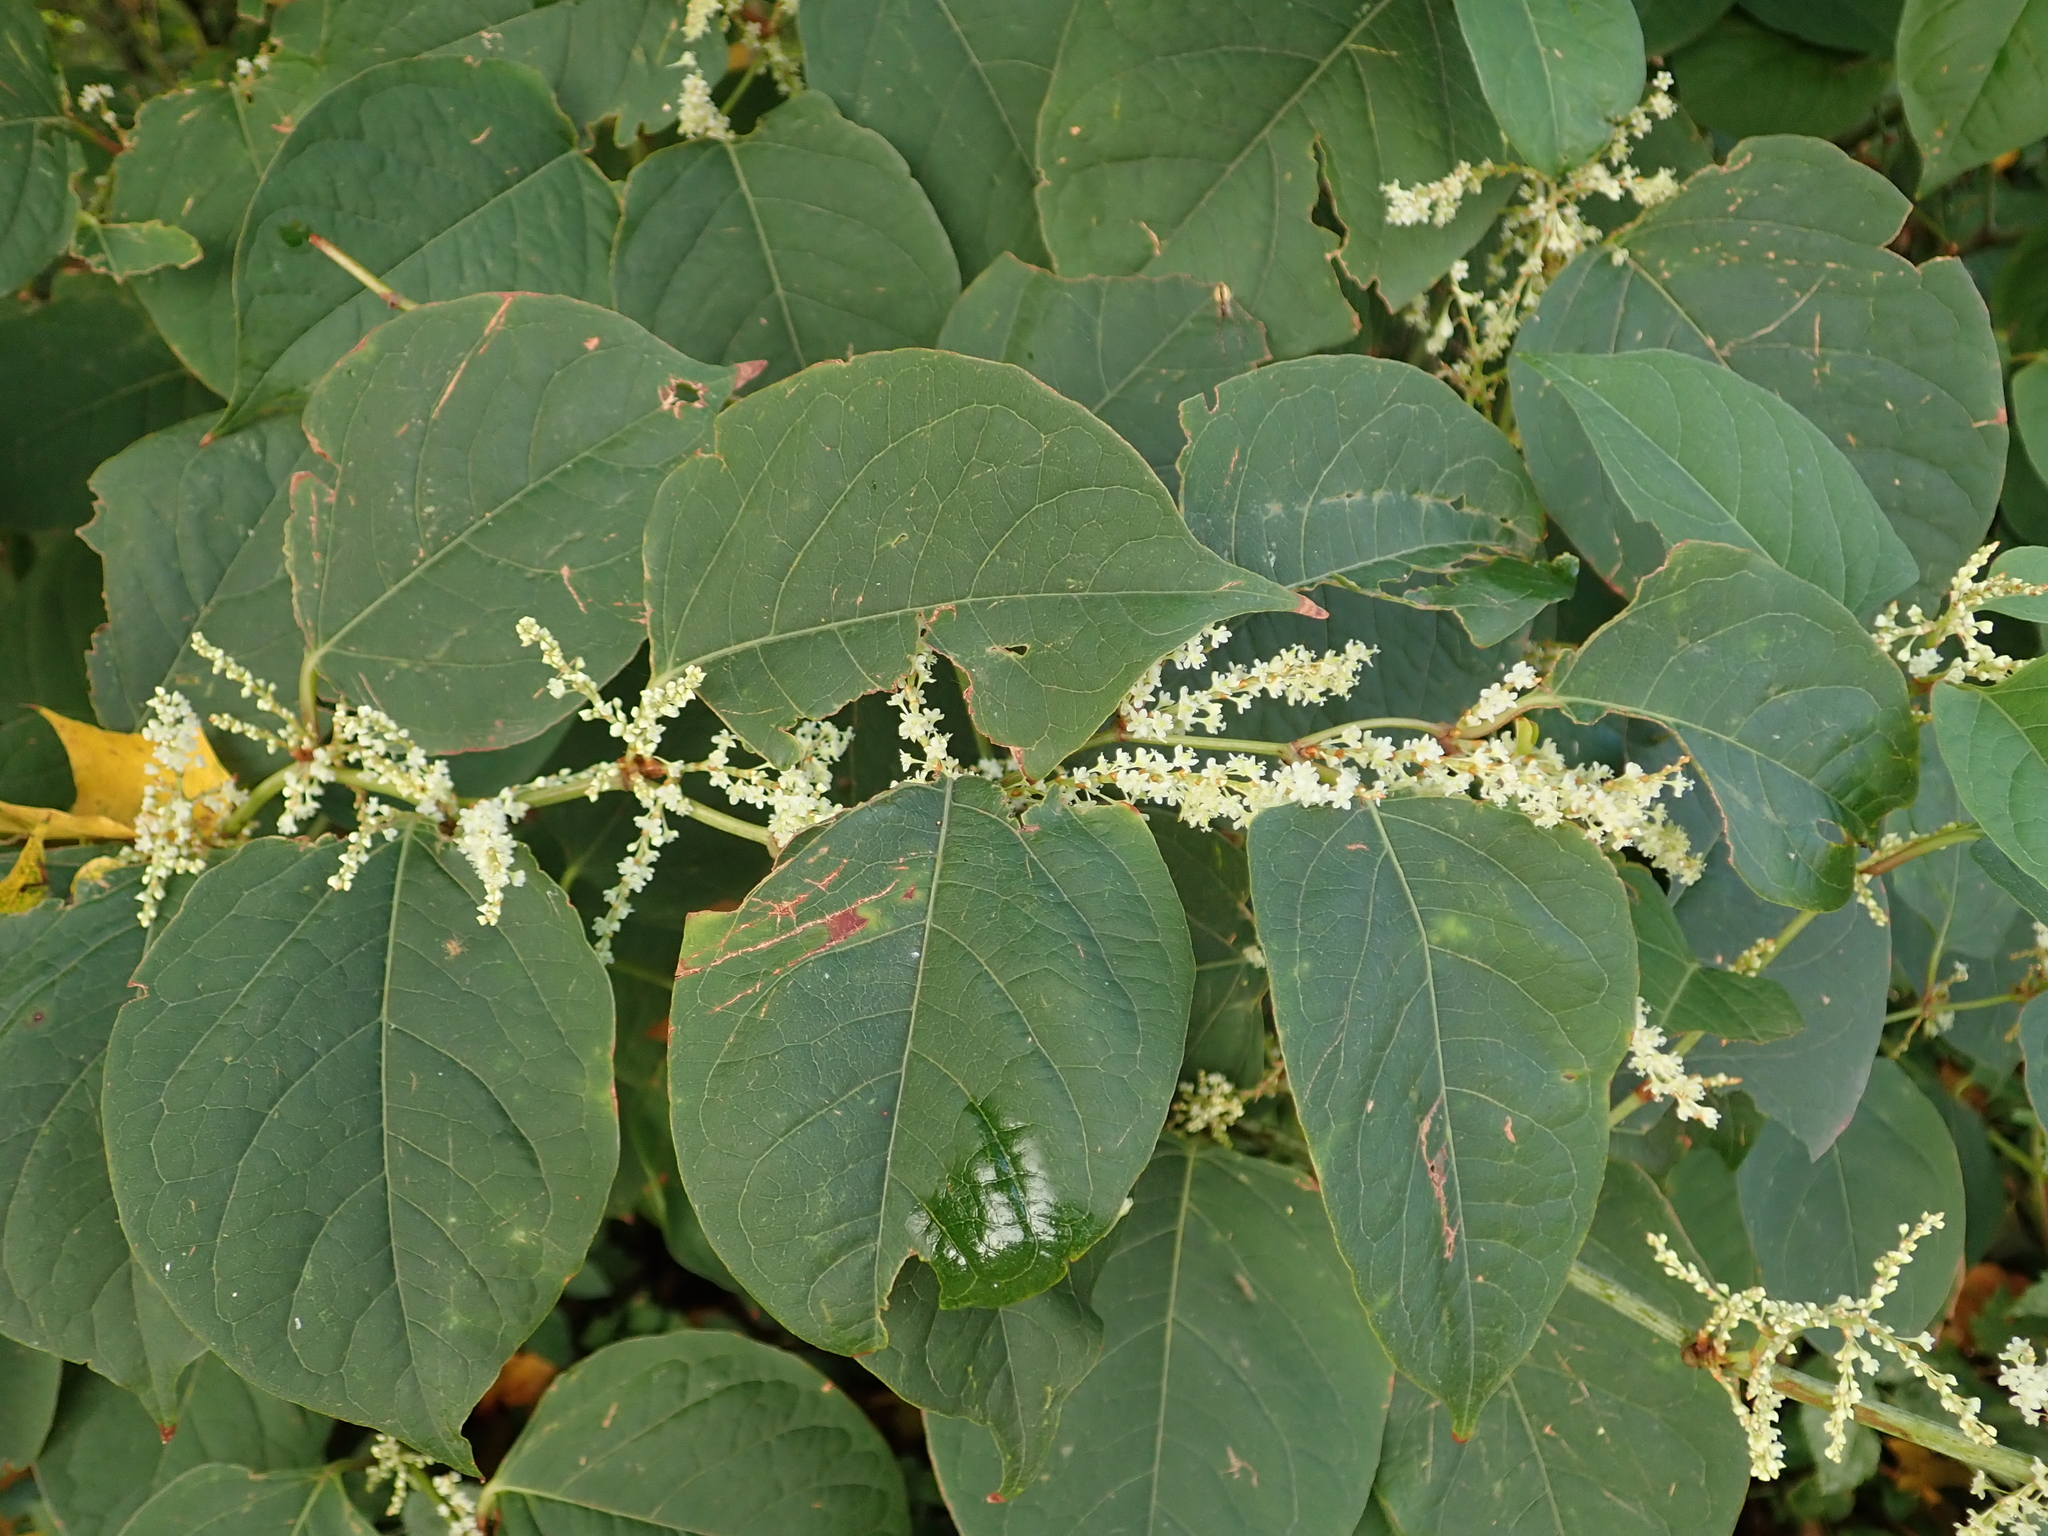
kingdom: Plantae
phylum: Tracheophyta
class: Magnoliopsida
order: Caryophyllales
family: Polygonaceae
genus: Reynoutria
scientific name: Reynoutria japonica
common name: Japanese knotweed
